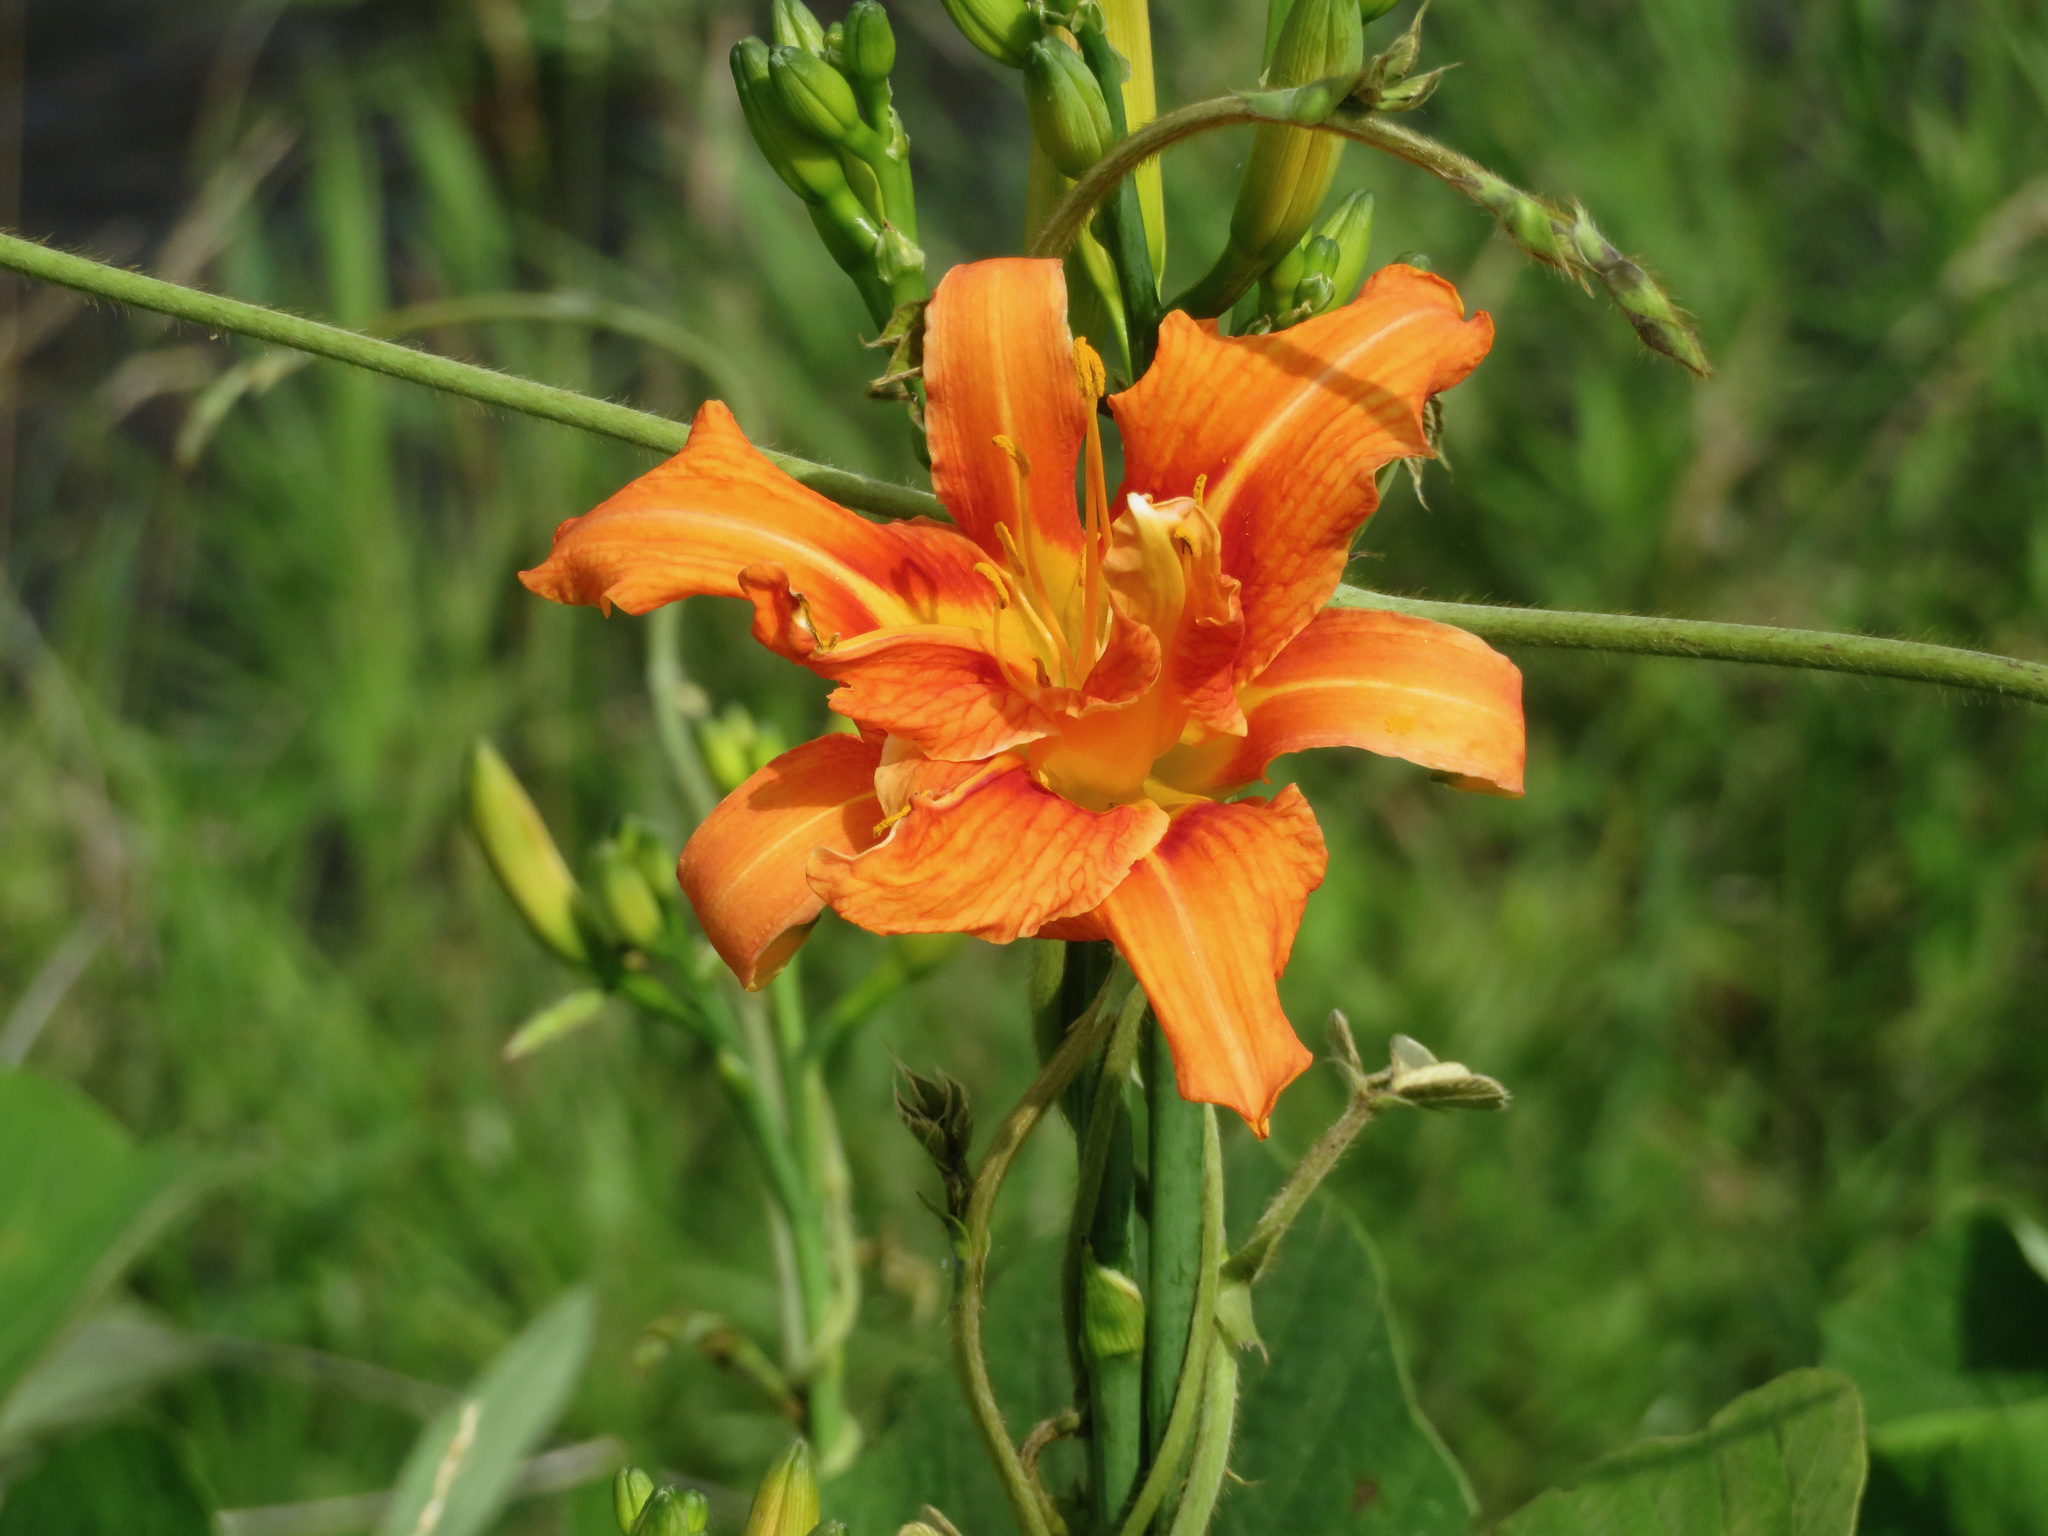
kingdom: Plantae
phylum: Tracheophyta
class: Liliopsida
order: Asparagales
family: Asphodelaceae
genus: Hemerocallis
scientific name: Hemerocallis fulva
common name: Orange day-lily
